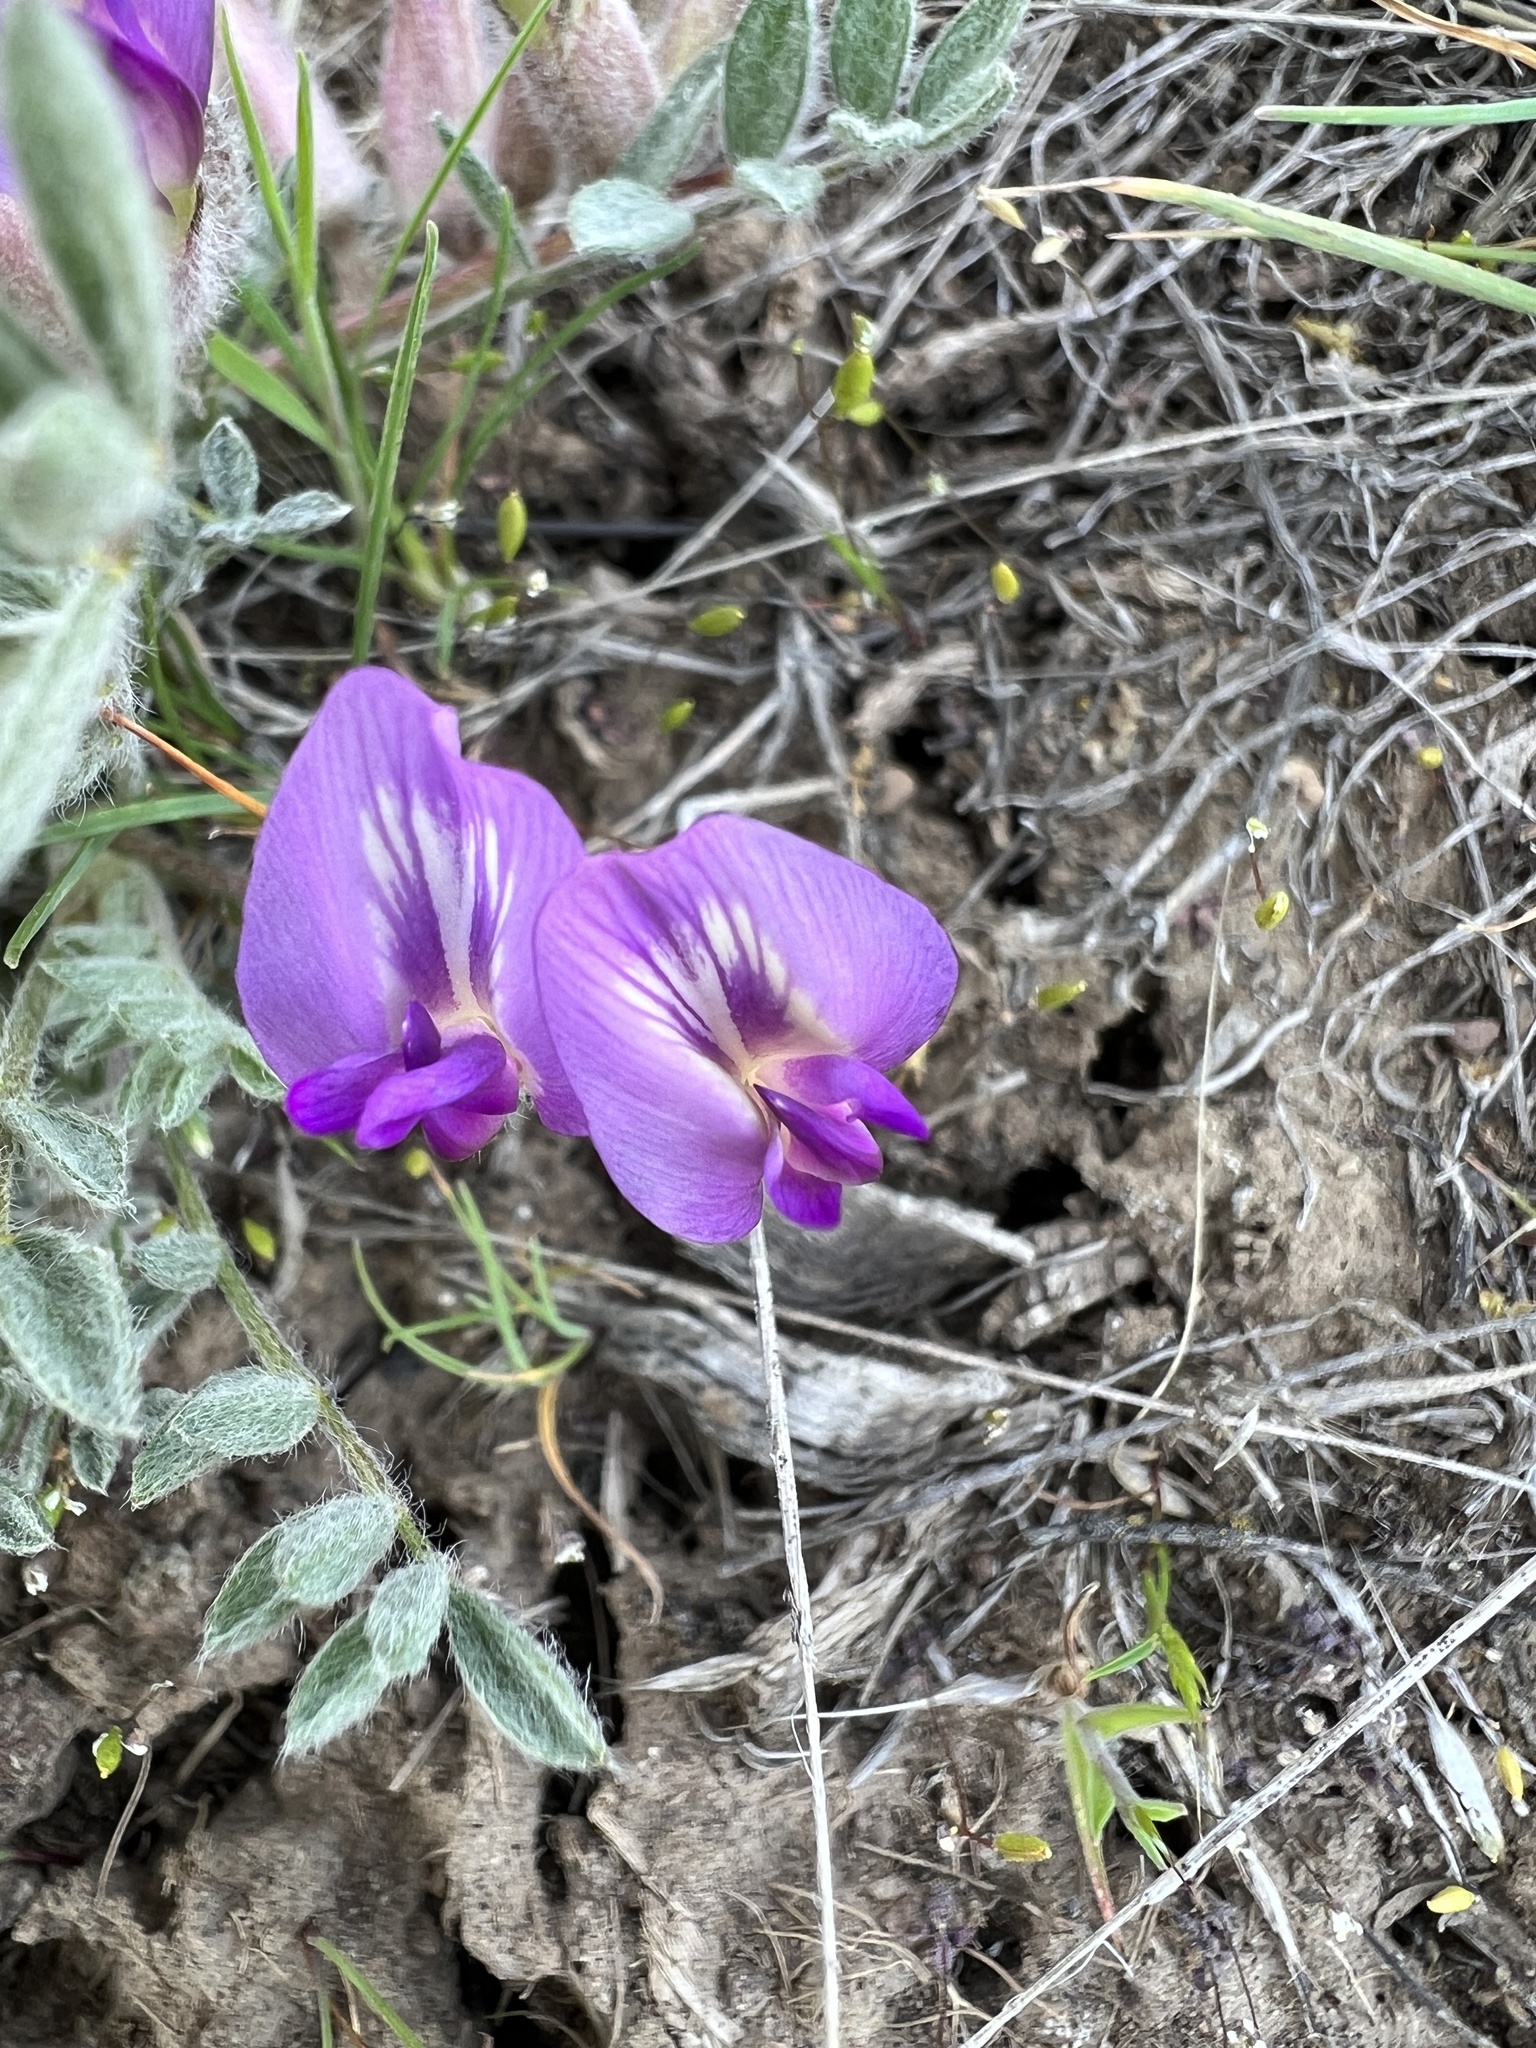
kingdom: Plantae
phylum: Tracheophyta
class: Magnoliopsida
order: Fabales
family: Fabaceae
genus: Astragalus
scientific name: Astragalus purshii
